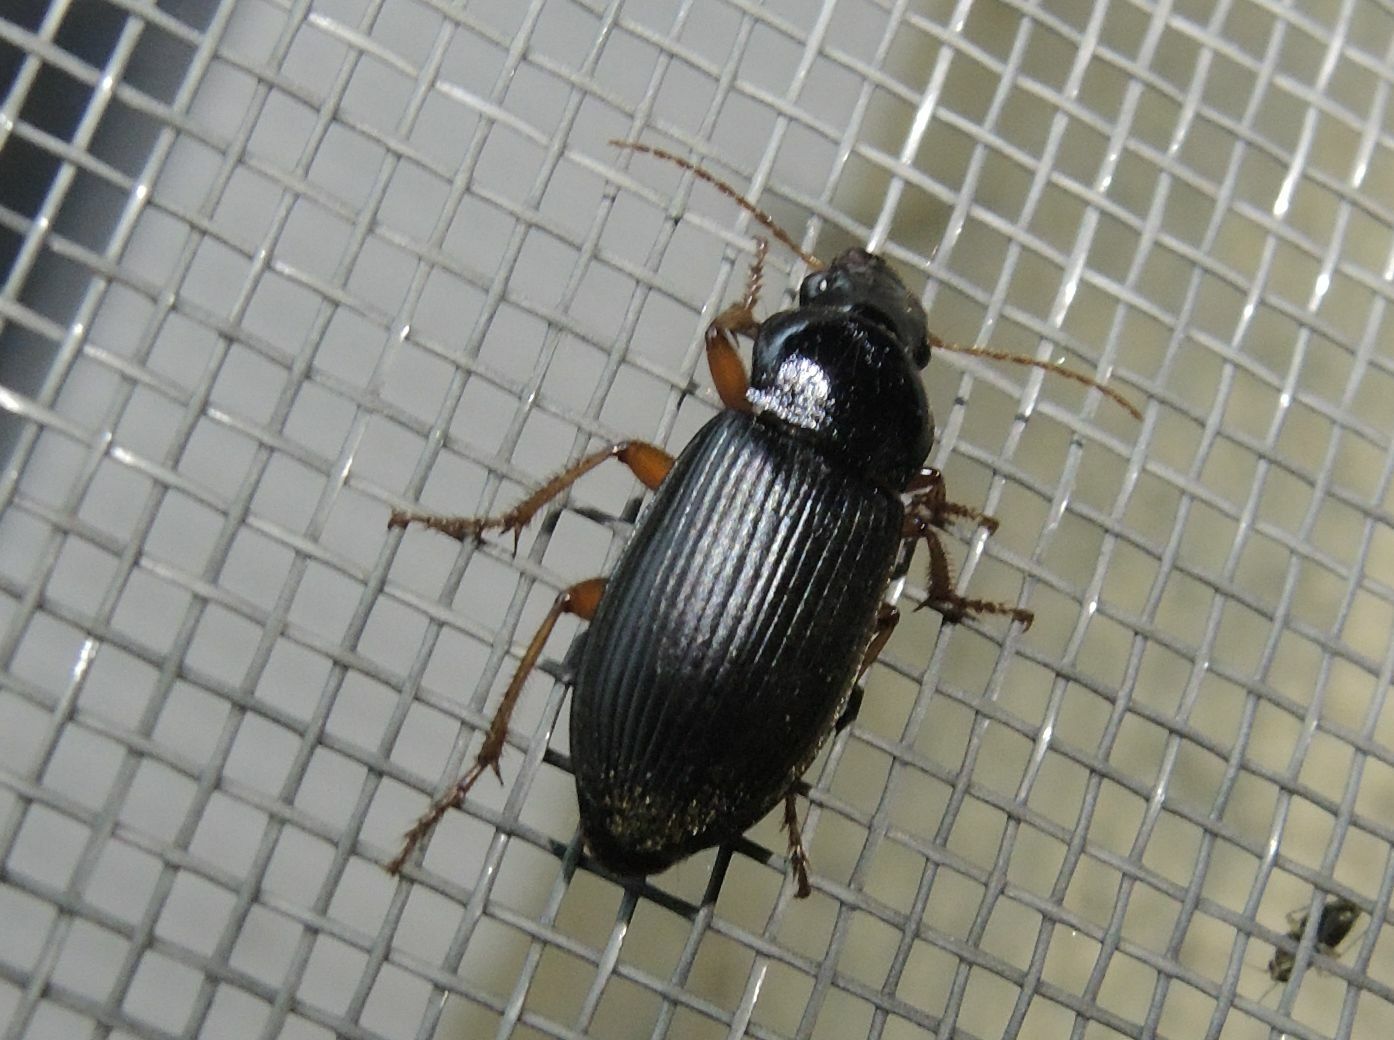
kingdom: Animalia
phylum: Arthropoda
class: Insecta
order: Coleoptera
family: Carabidae
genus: Harpalus
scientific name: Harpalus rufipes
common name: Strawberry harp ground beetle
